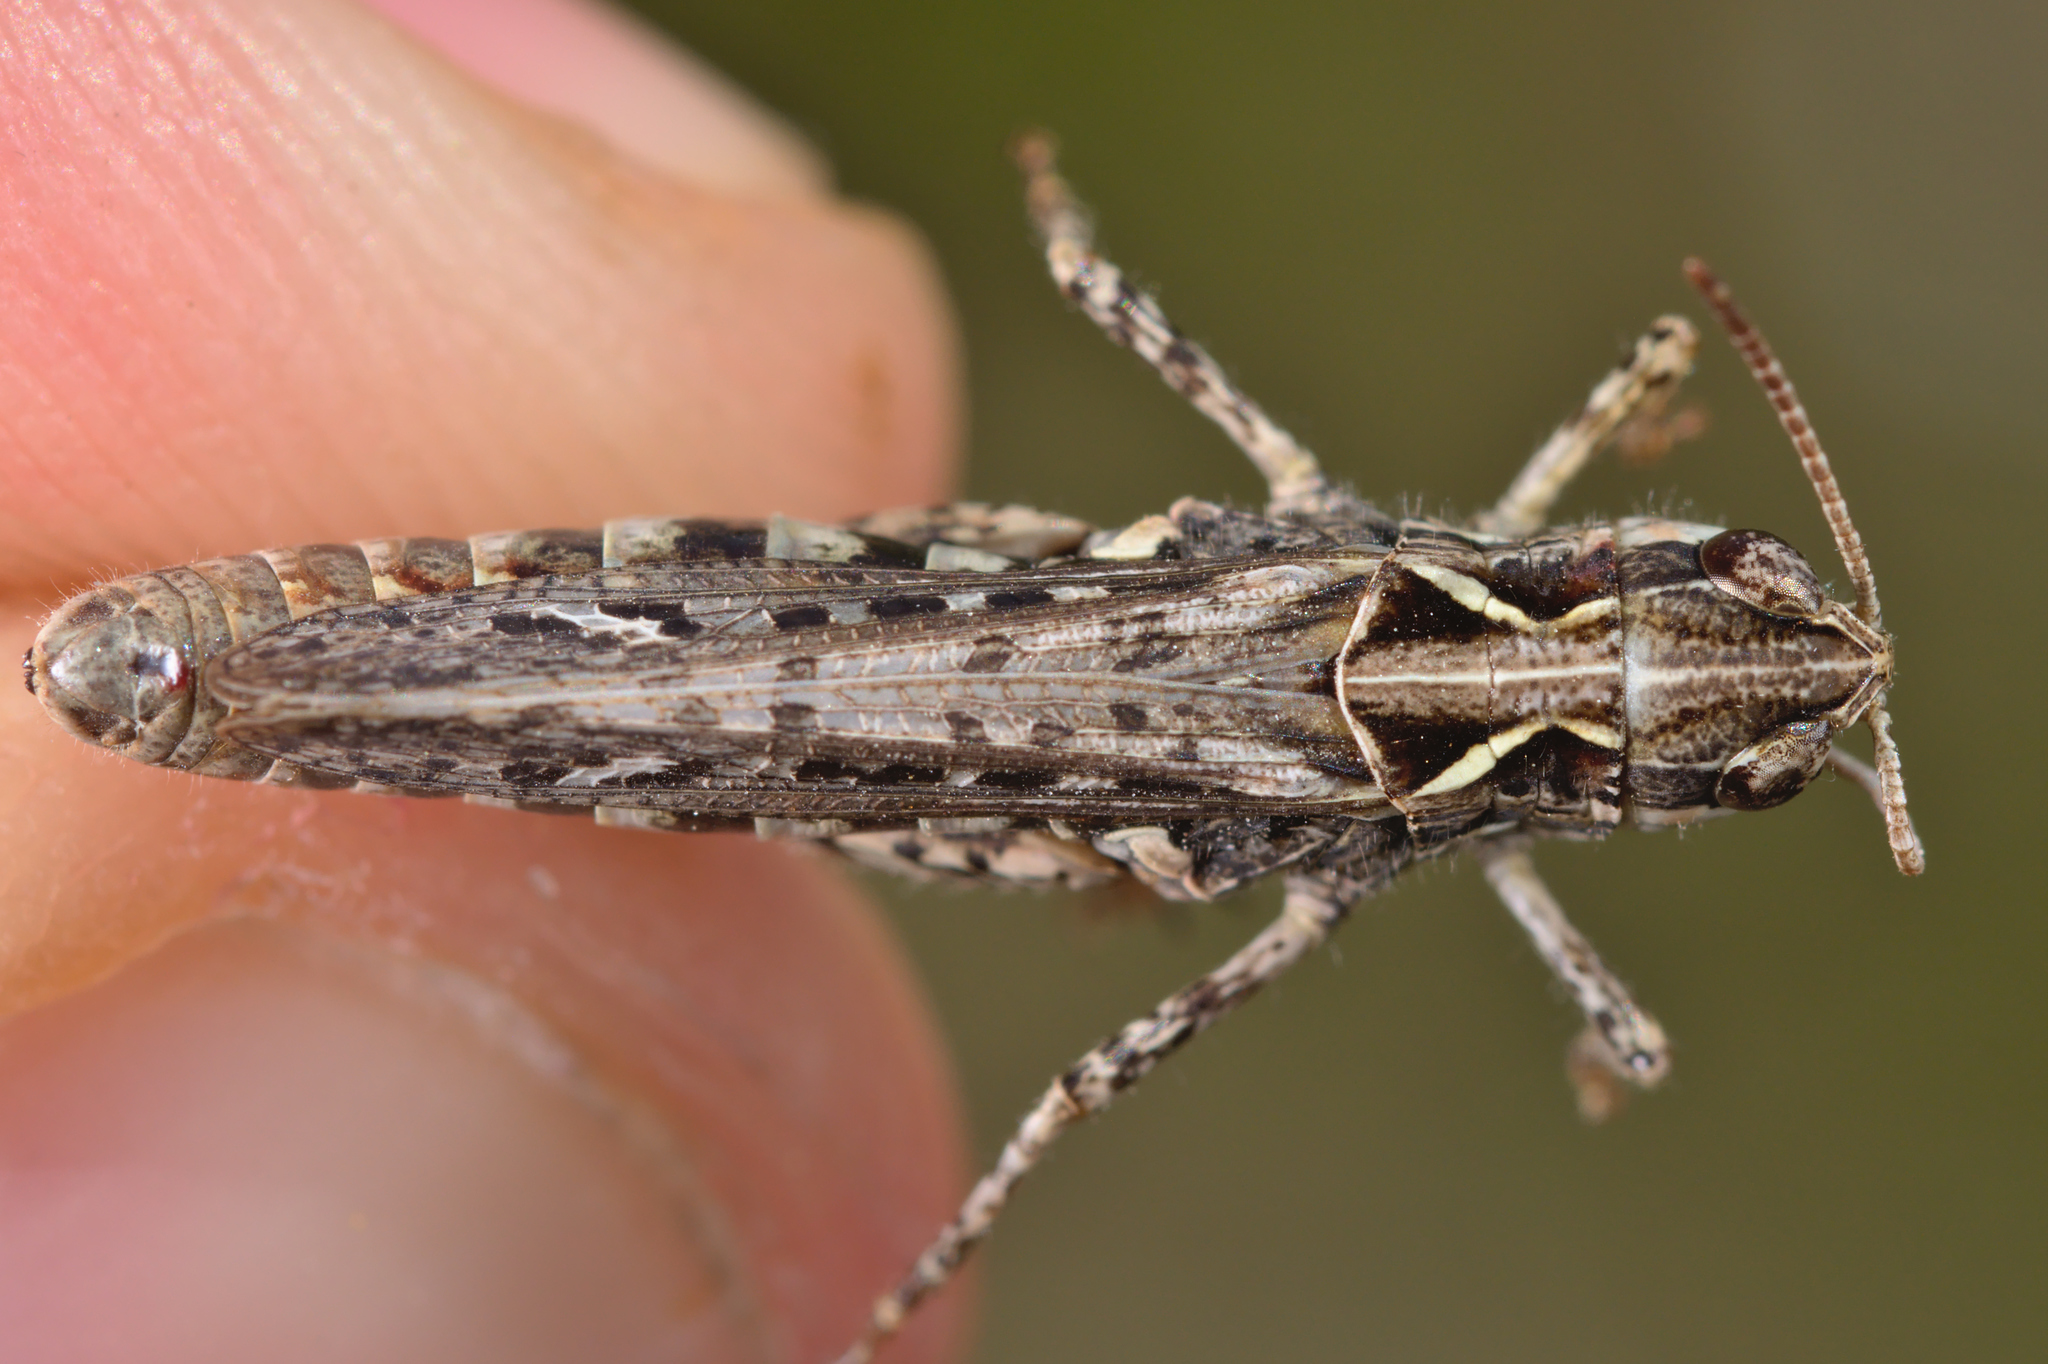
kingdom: Animalia
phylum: Arthropoda
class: Insecta
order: Orthoptera
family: Acrididae
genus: Myrmeleotettix
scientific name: Myrmeleotettix maculatus
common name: Mottled grasshopper
